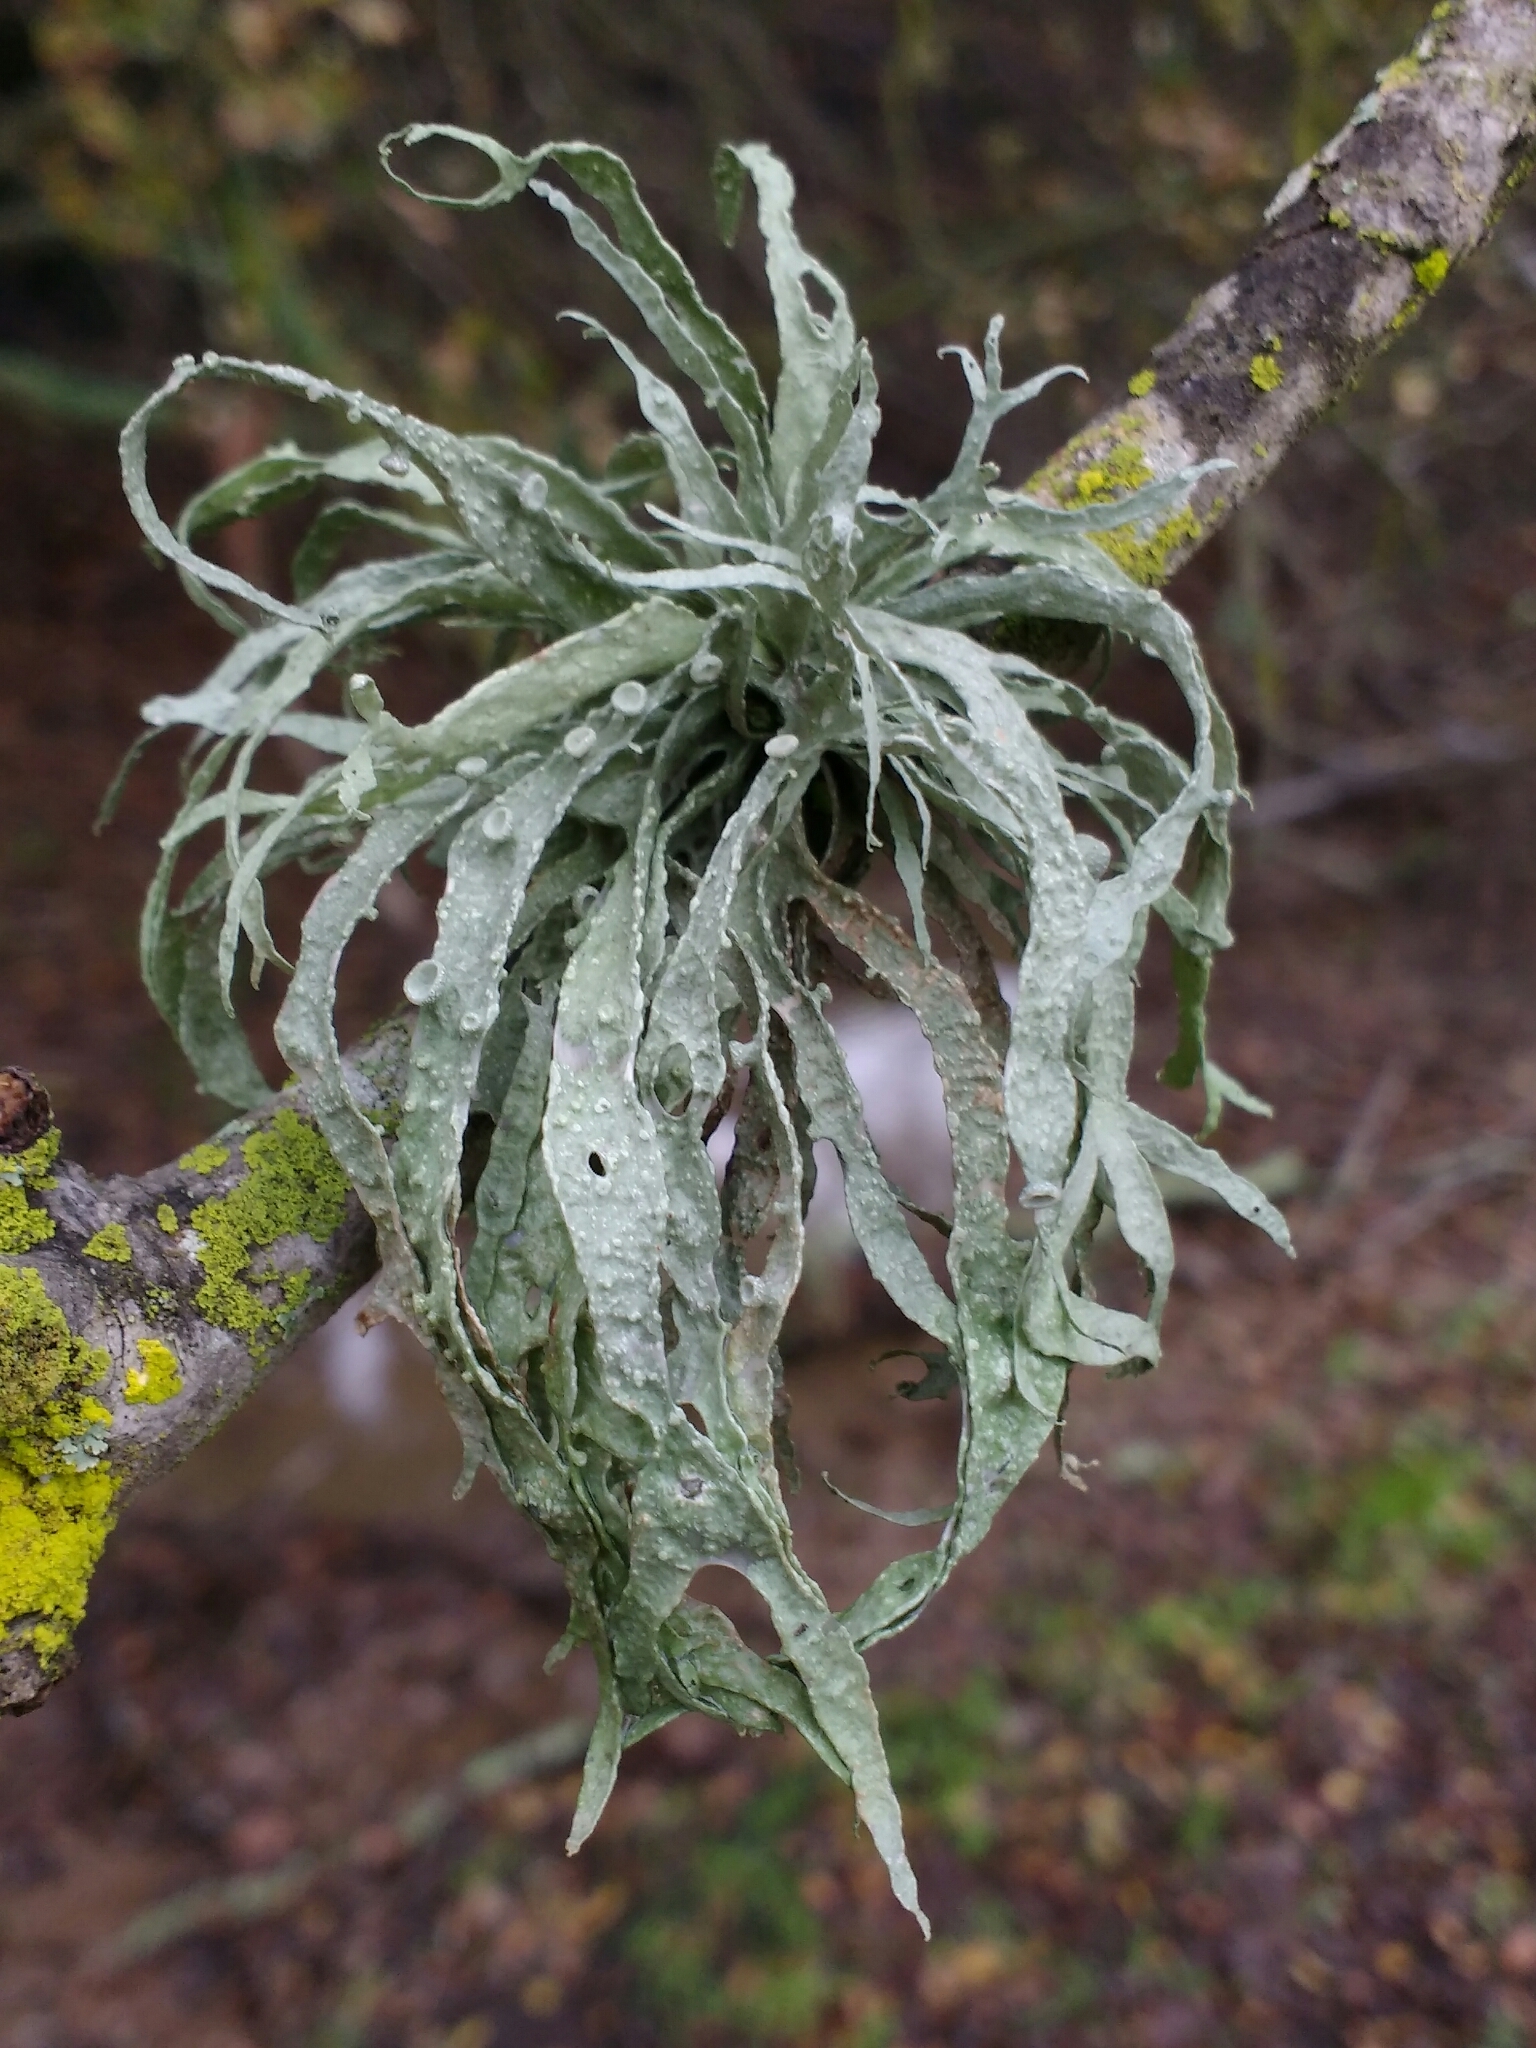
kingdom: Fungi
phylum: Ascomycota
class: Lecanoromycetes
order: Lecanorales
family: Ramalinaceae
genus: Ramalina
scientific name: Ramalina leptocarpha
